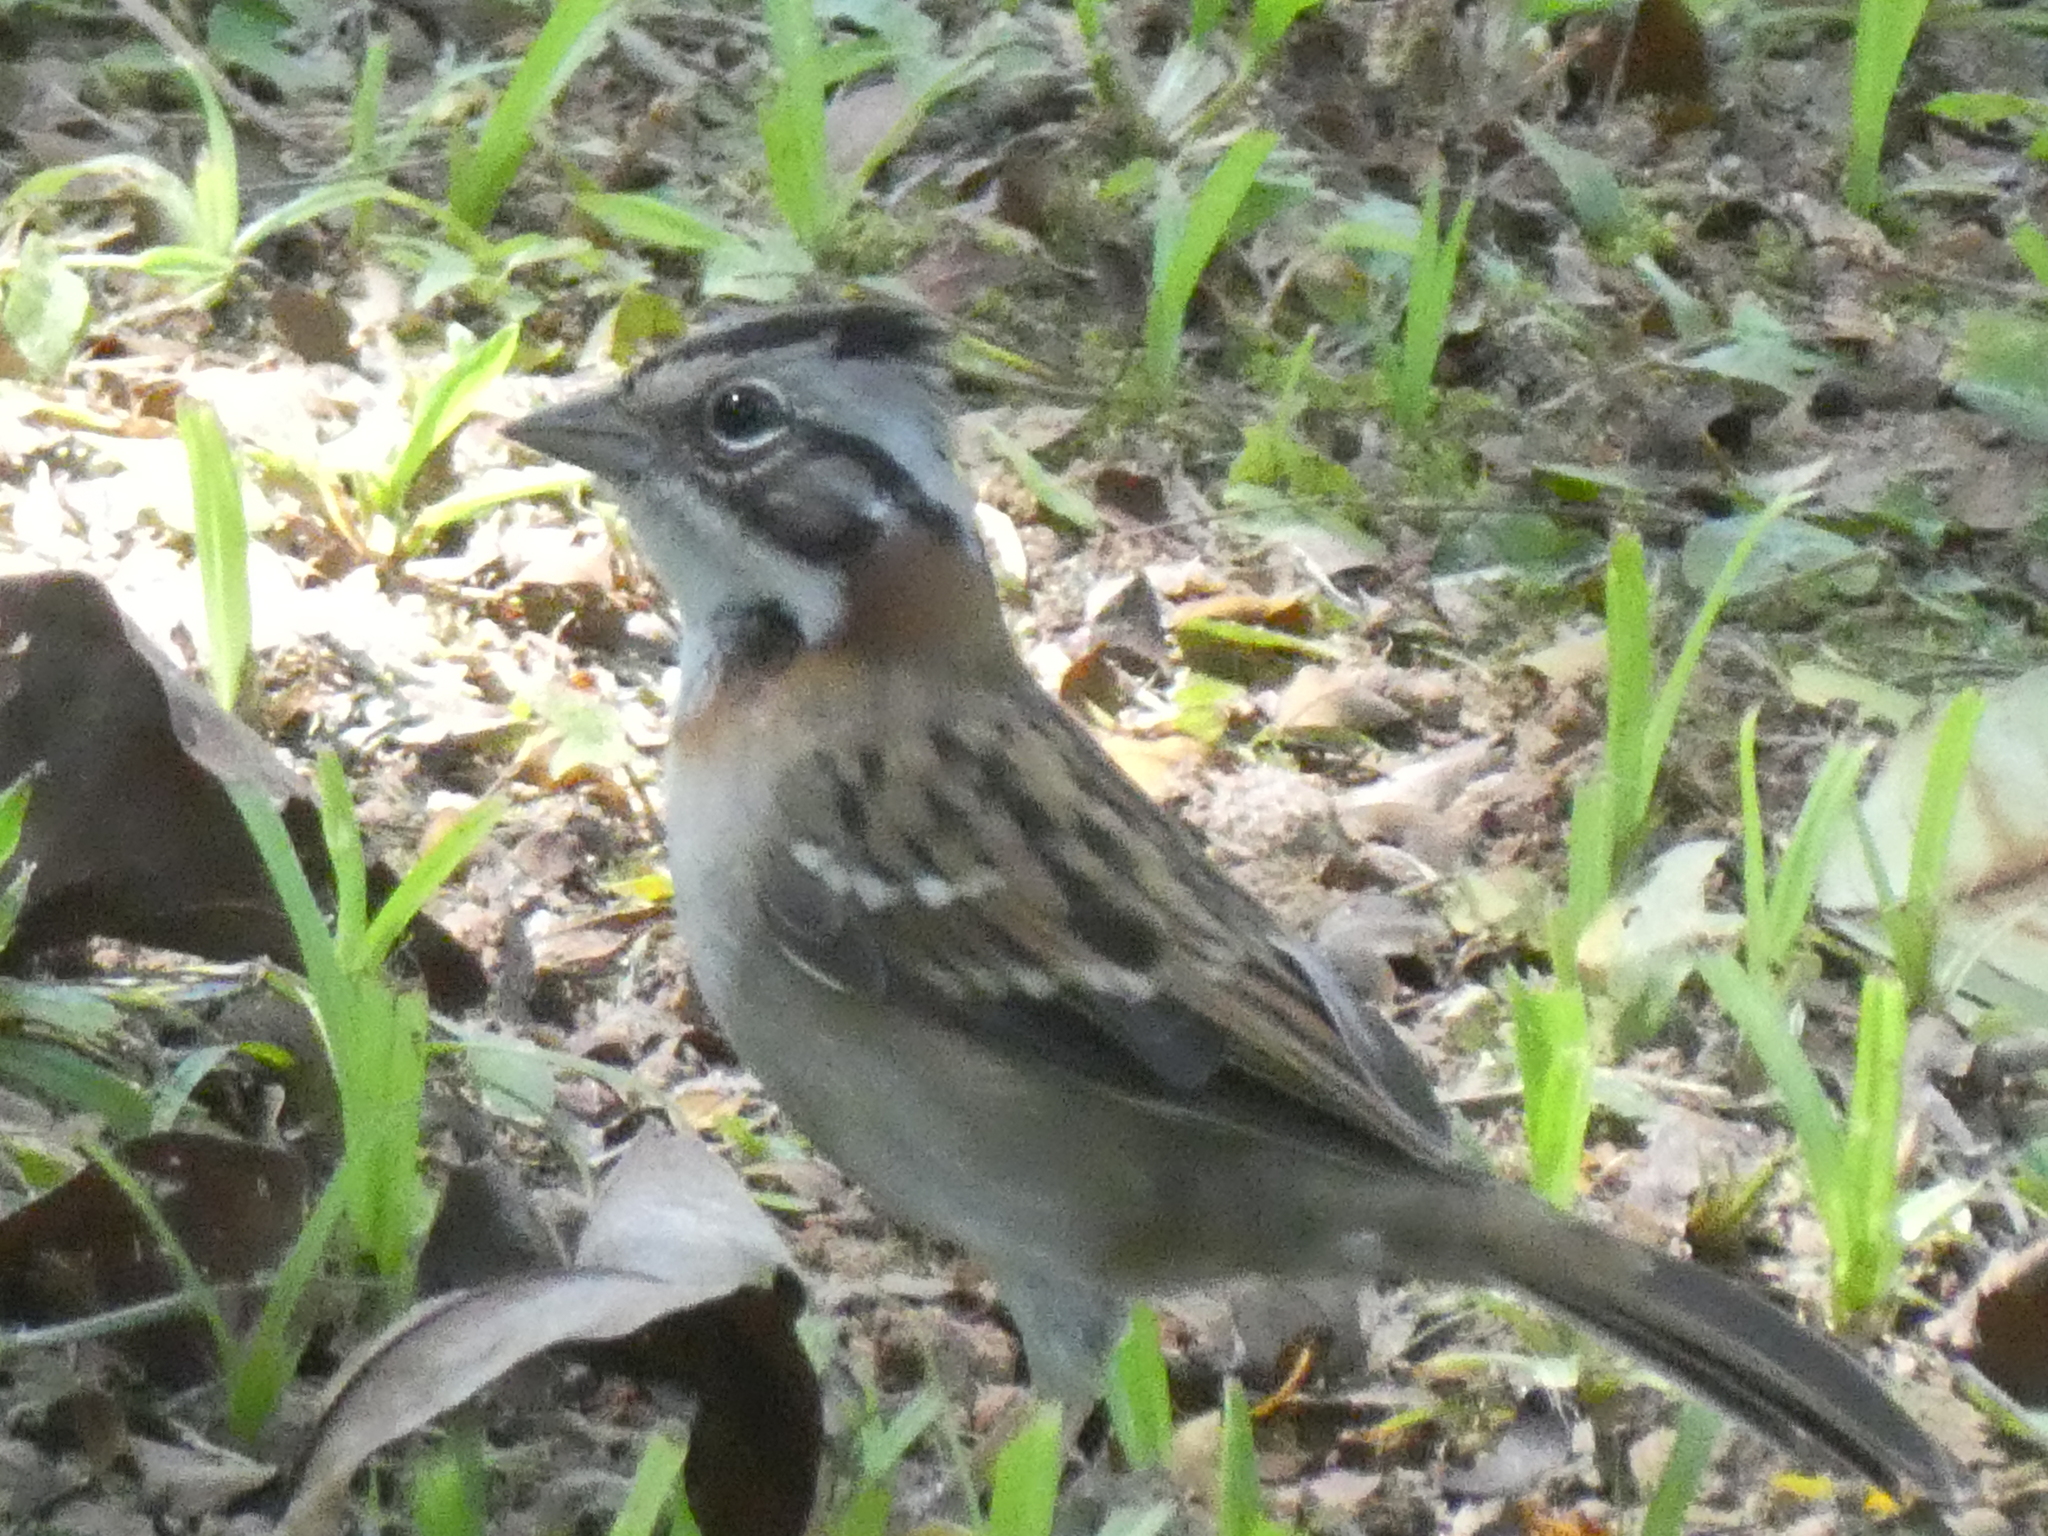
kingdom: Animalia
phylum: Chordata
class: Aves
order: Passeriformes
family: Passerellidae
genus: Zonotrichia
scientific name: Zonotrichia capensis
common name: Rufous-collared sparrow
